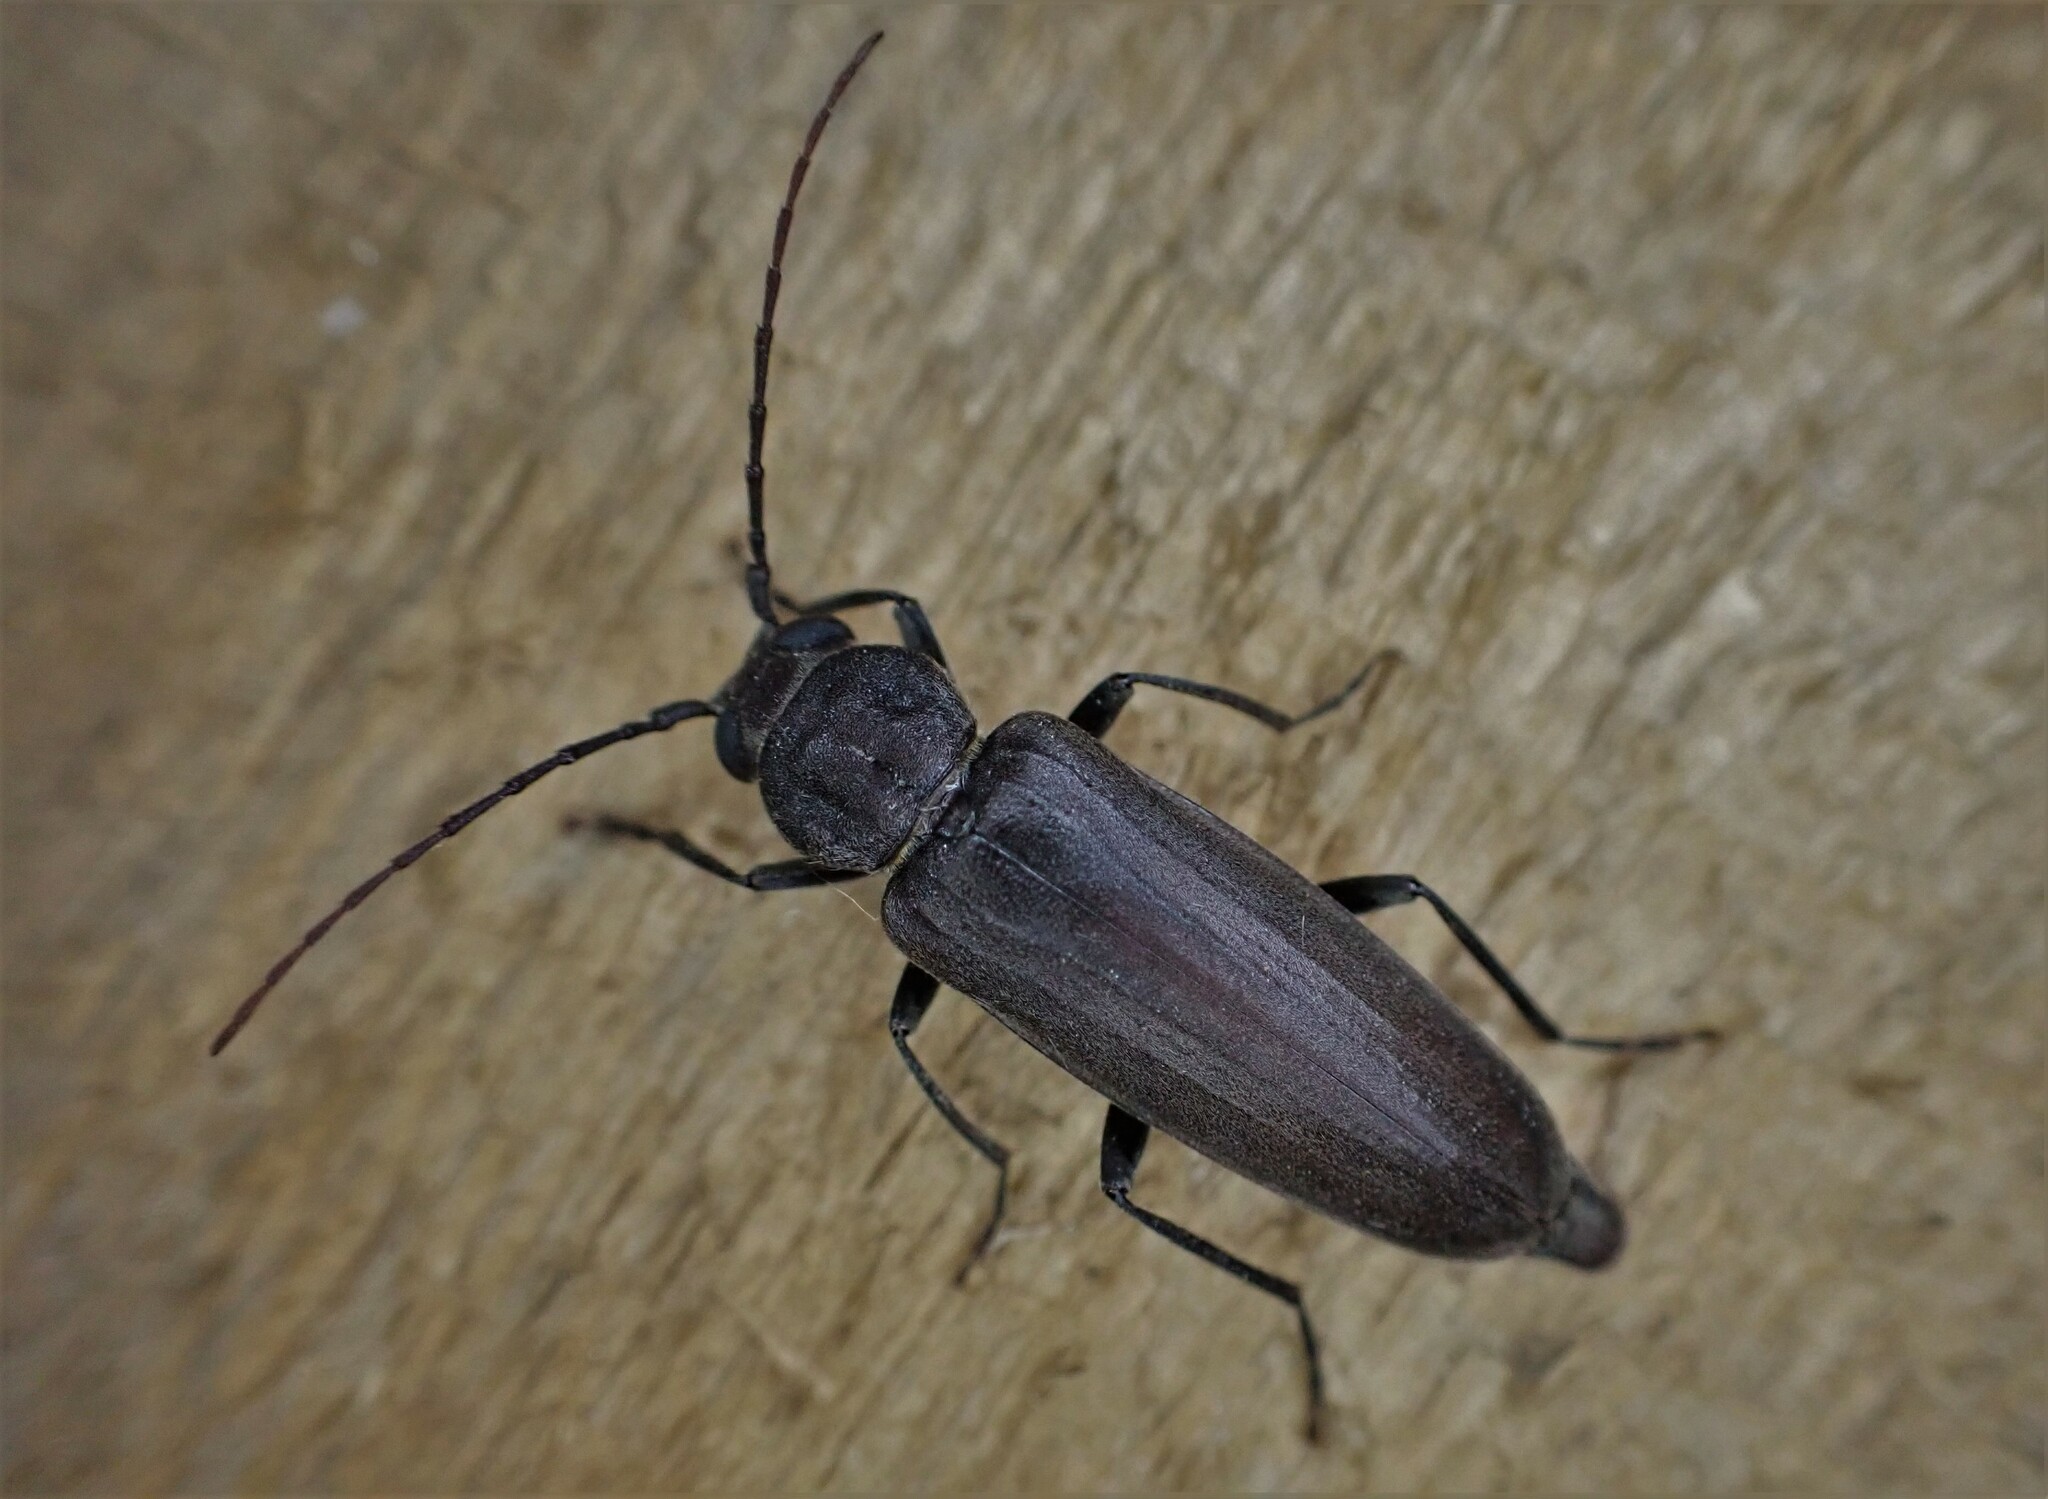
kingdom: Animalia
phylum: Arthropoda
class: Insecta
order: Coleoptera
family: Cerambycidae
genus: Arhopalus
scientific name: Arhopalus ferus
